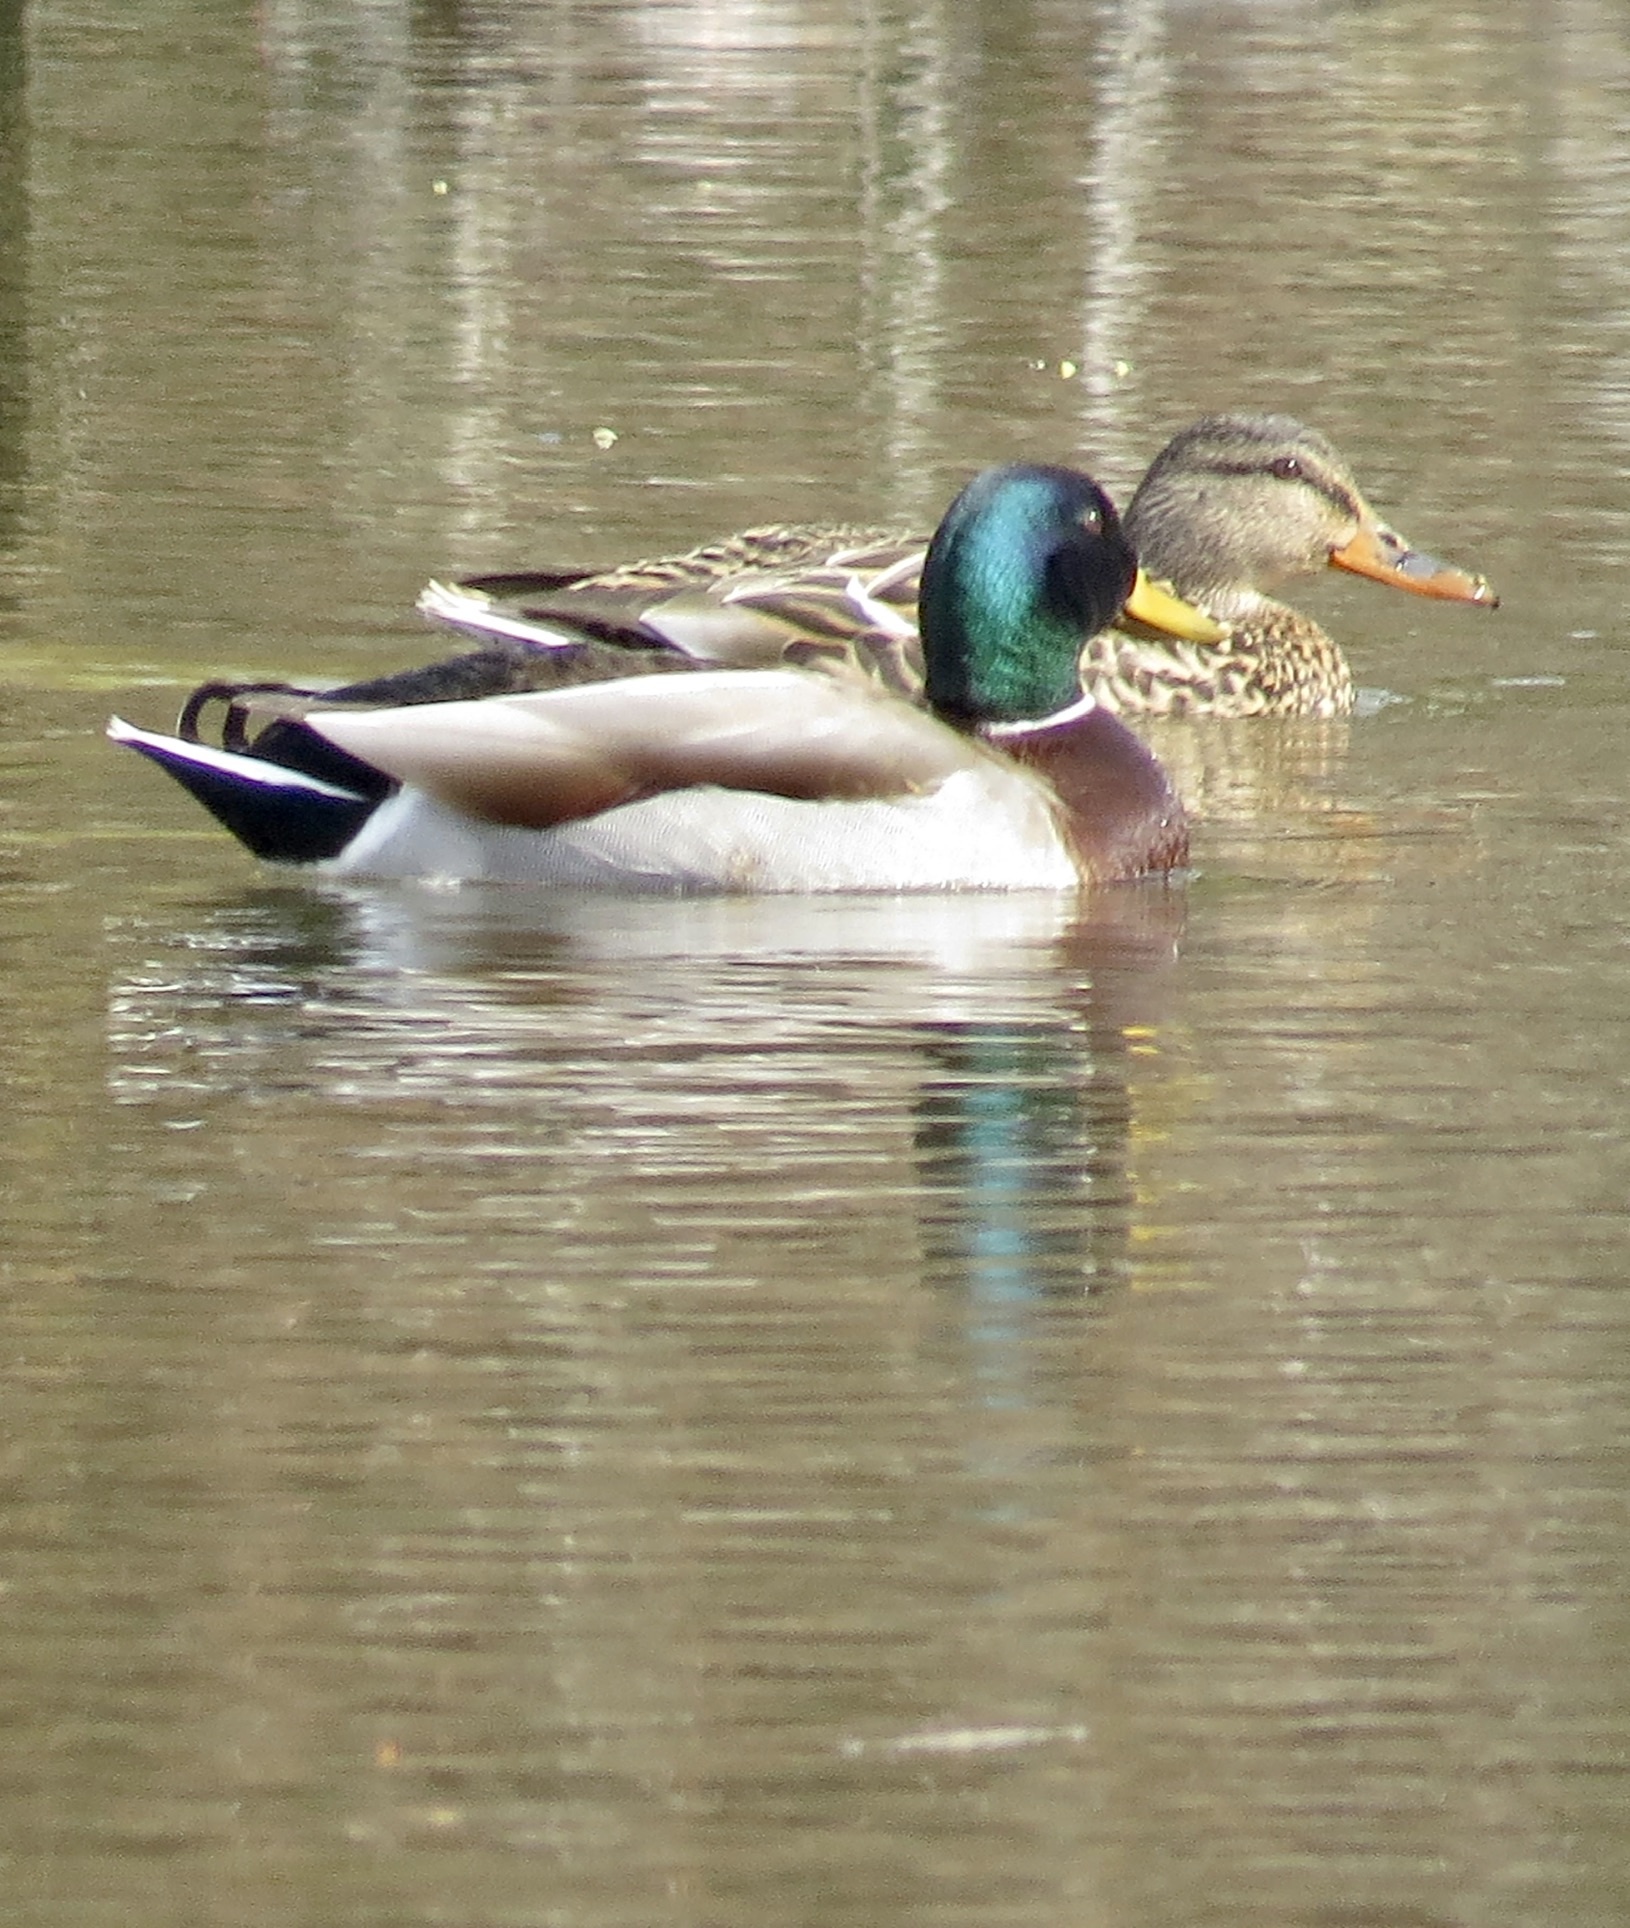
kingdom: Animalia
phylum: Chordata
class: Aves
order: Anseriformes
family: Anatidae
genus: Anas
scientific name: Anas platyrhynchos
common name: Mallard
